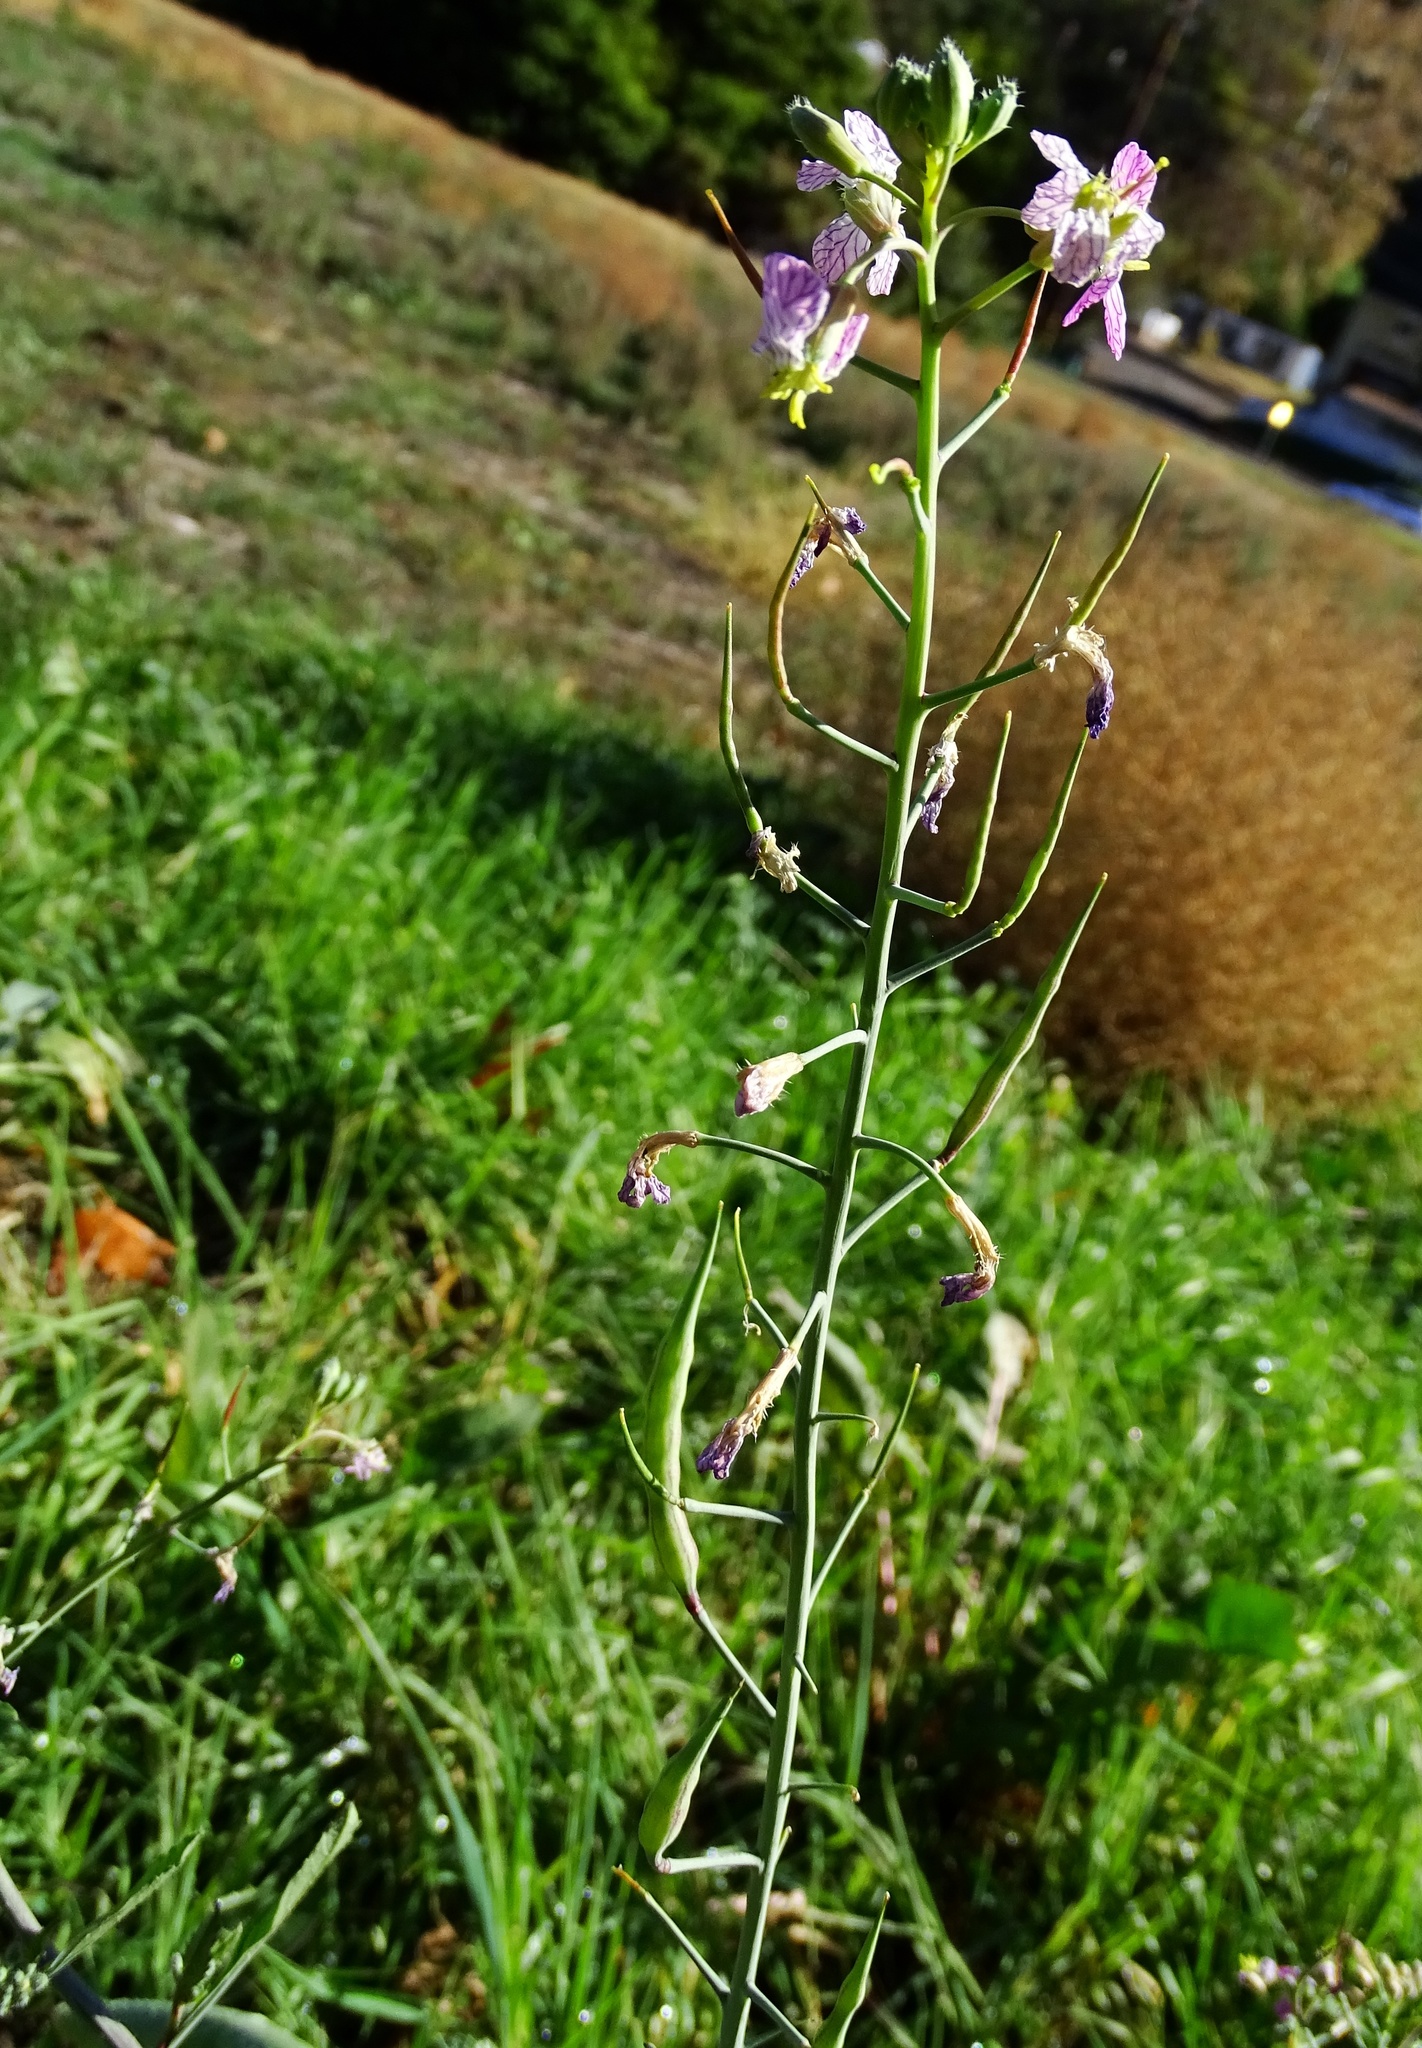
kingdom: Plantae
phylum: Tracheophyta
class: Magnoliopsida
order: Brassicales
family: Brassicaceae
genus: Raphanus
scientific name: Raphanus sativus
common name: Cultivated radish
